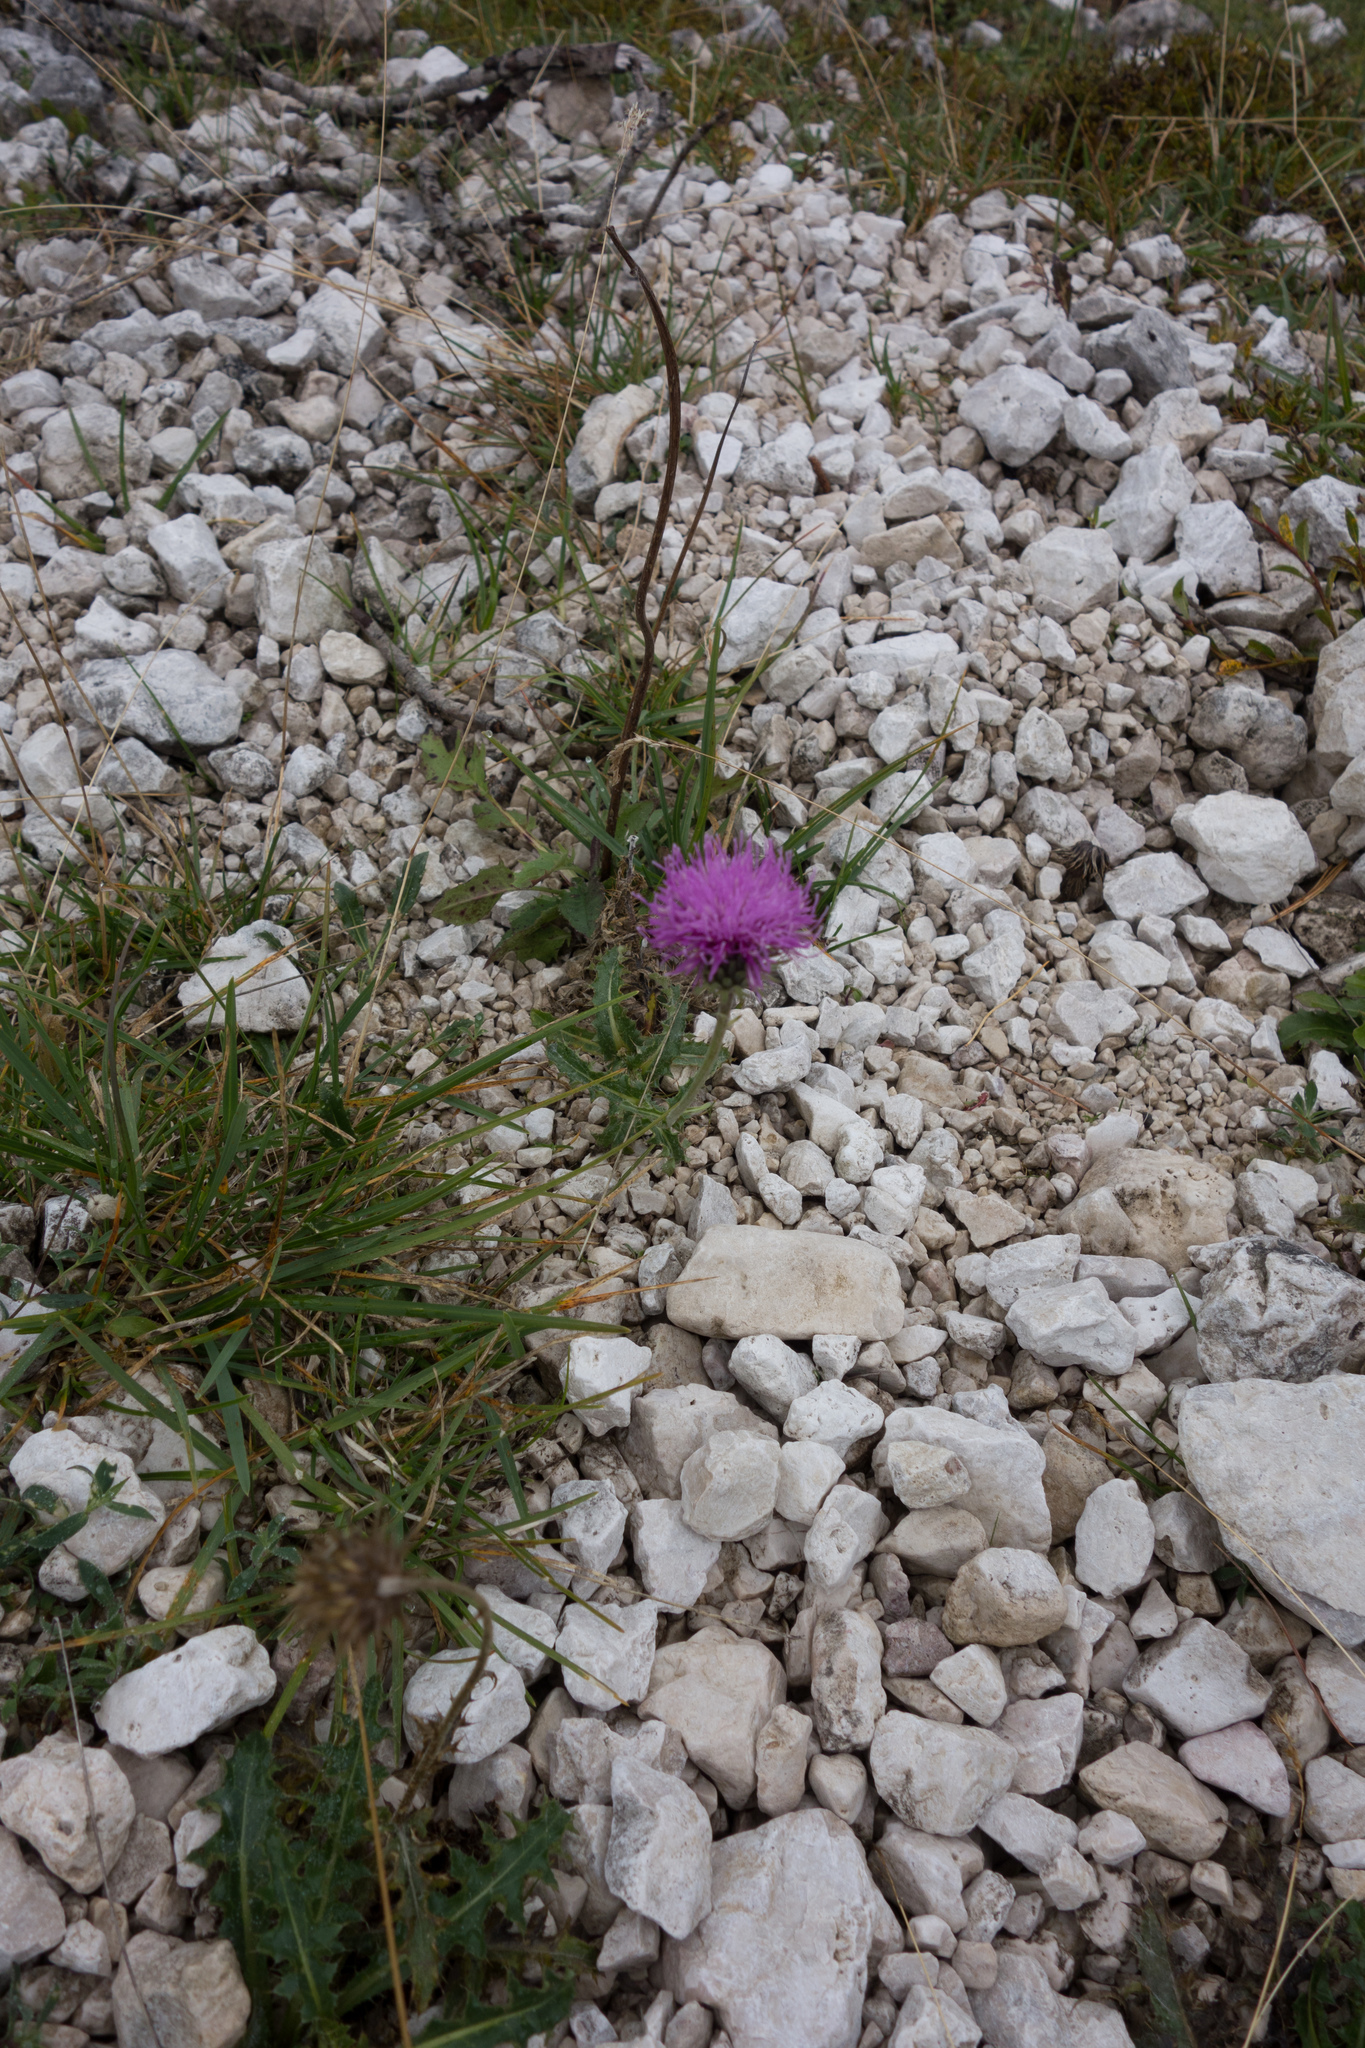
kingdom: Plantae
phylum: Tracheophyta
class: Magnoliopsida
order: Asterales
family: Asteraceae
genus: Carduus
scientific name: Carduus defloratus
